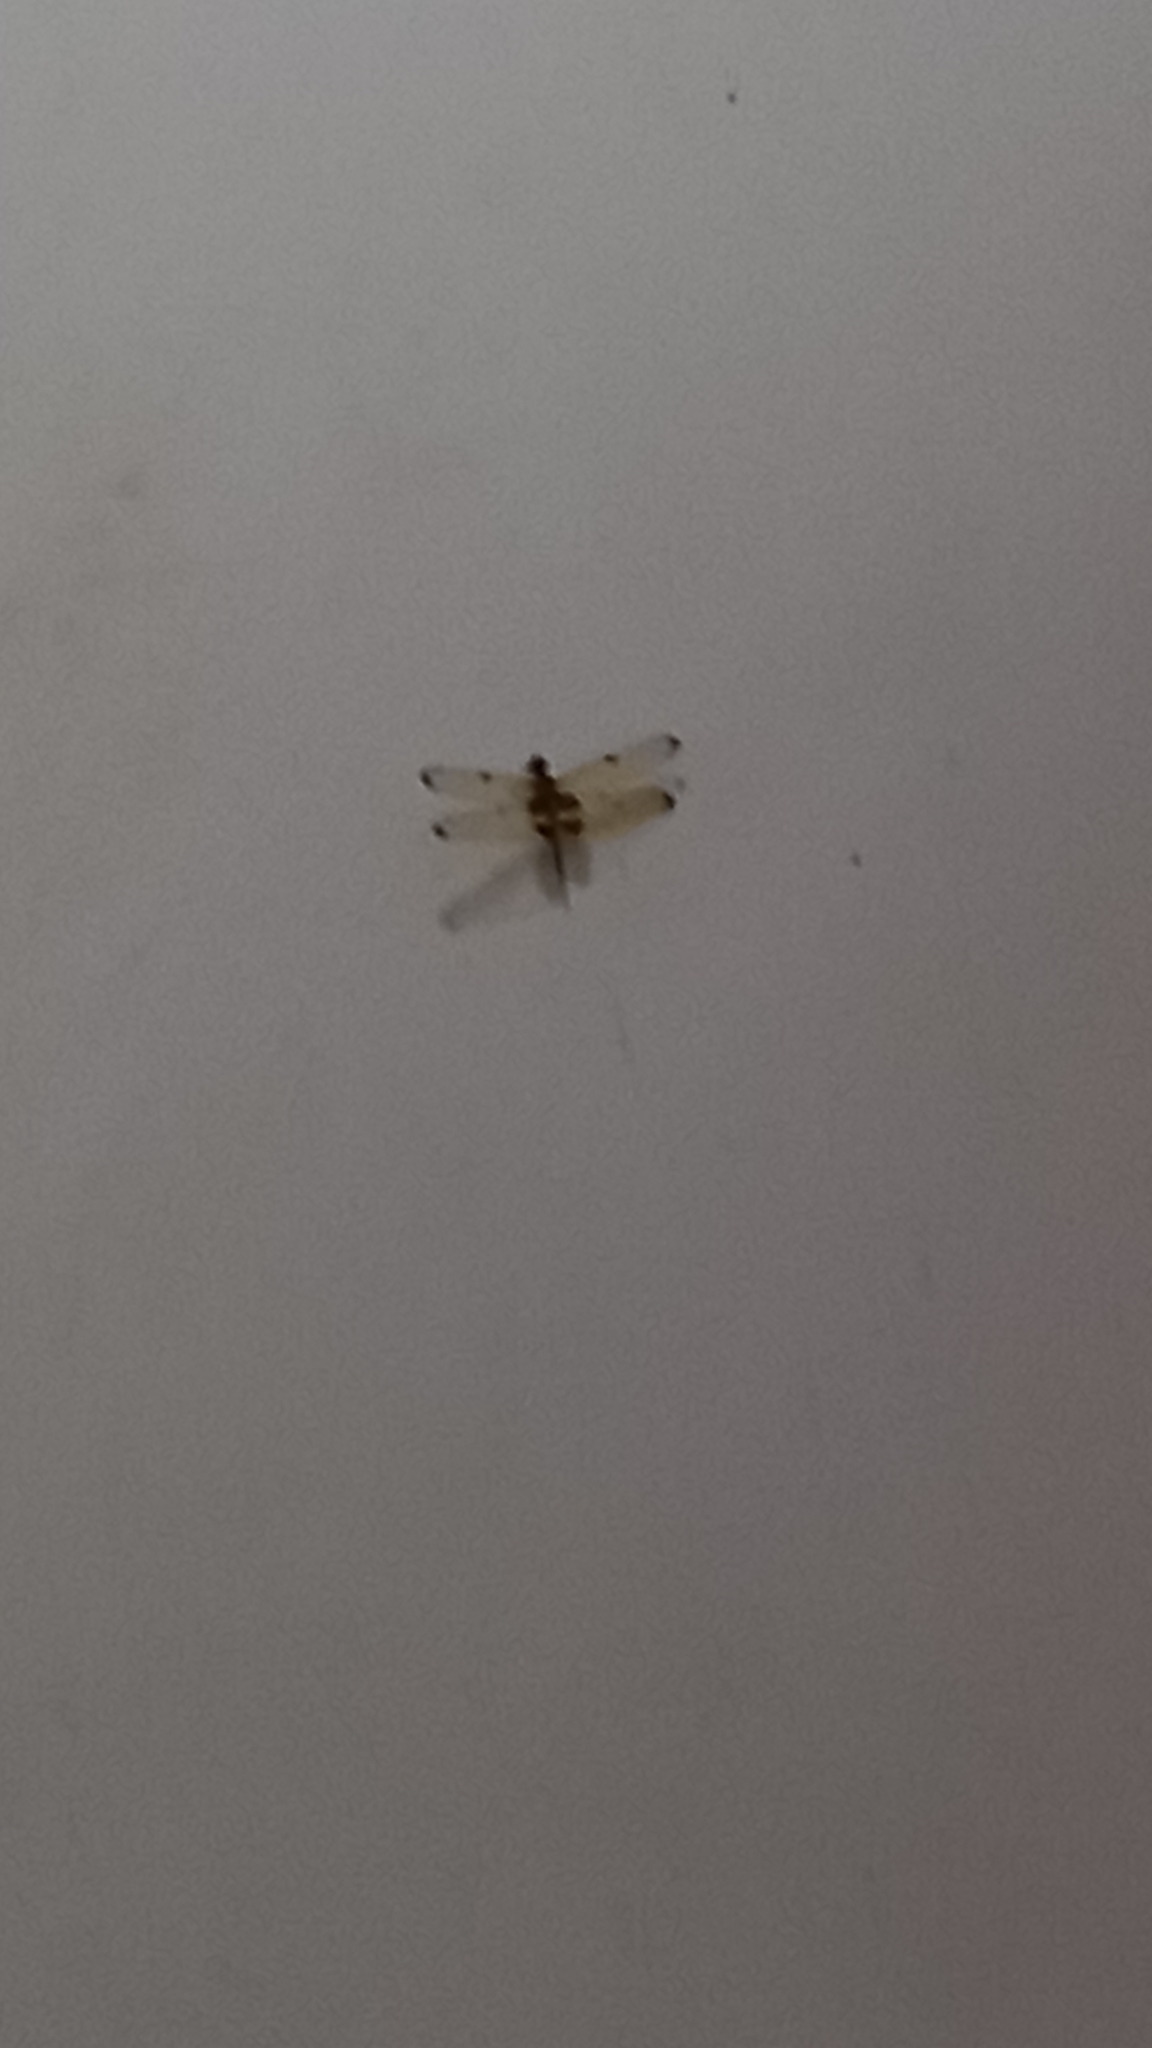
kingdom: Animalia
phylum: Arthropoda
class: Insecta
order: Odonata
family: Libellulidae
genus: Rhyothemis
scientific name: Rhyothemis phyllis
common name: Yellow-barred flutterer
